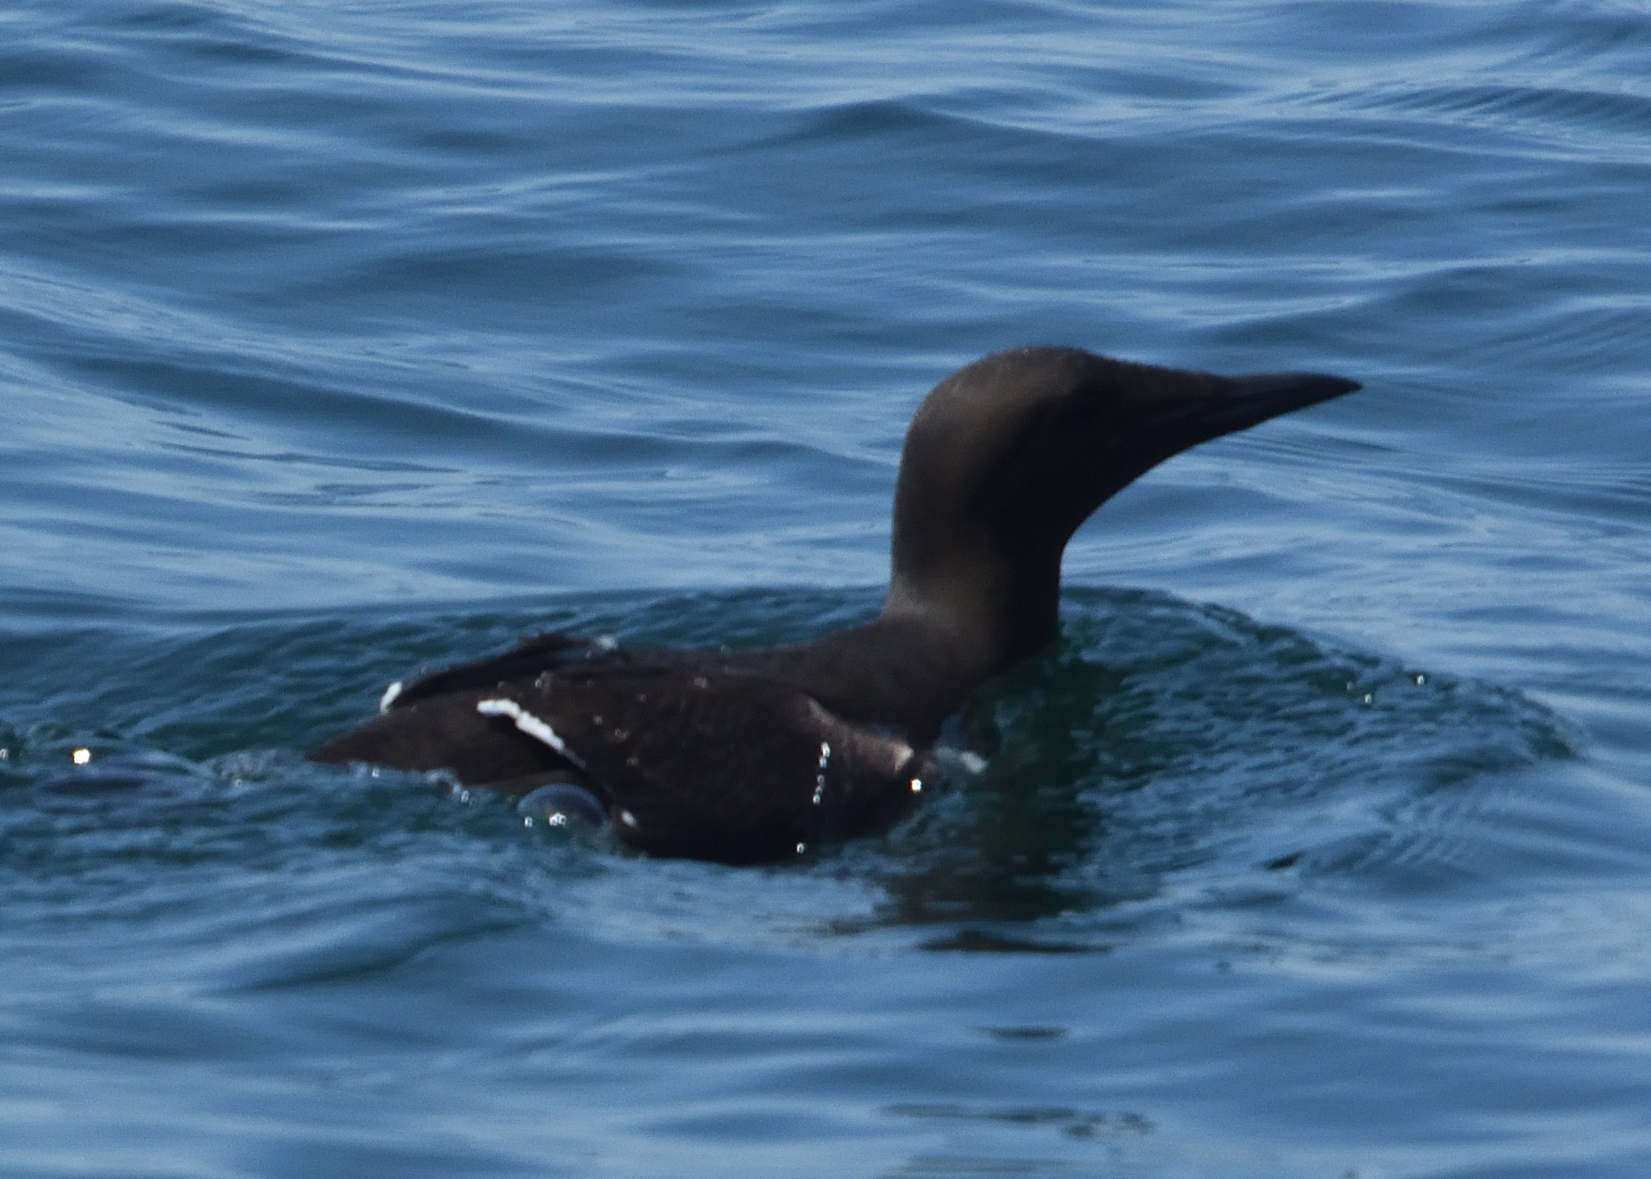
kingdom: Animalia
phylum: Chordata
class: Aves
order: Charadriiformes
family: Alcidae
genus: Uria
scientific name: Uria aalge
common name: Common murre
